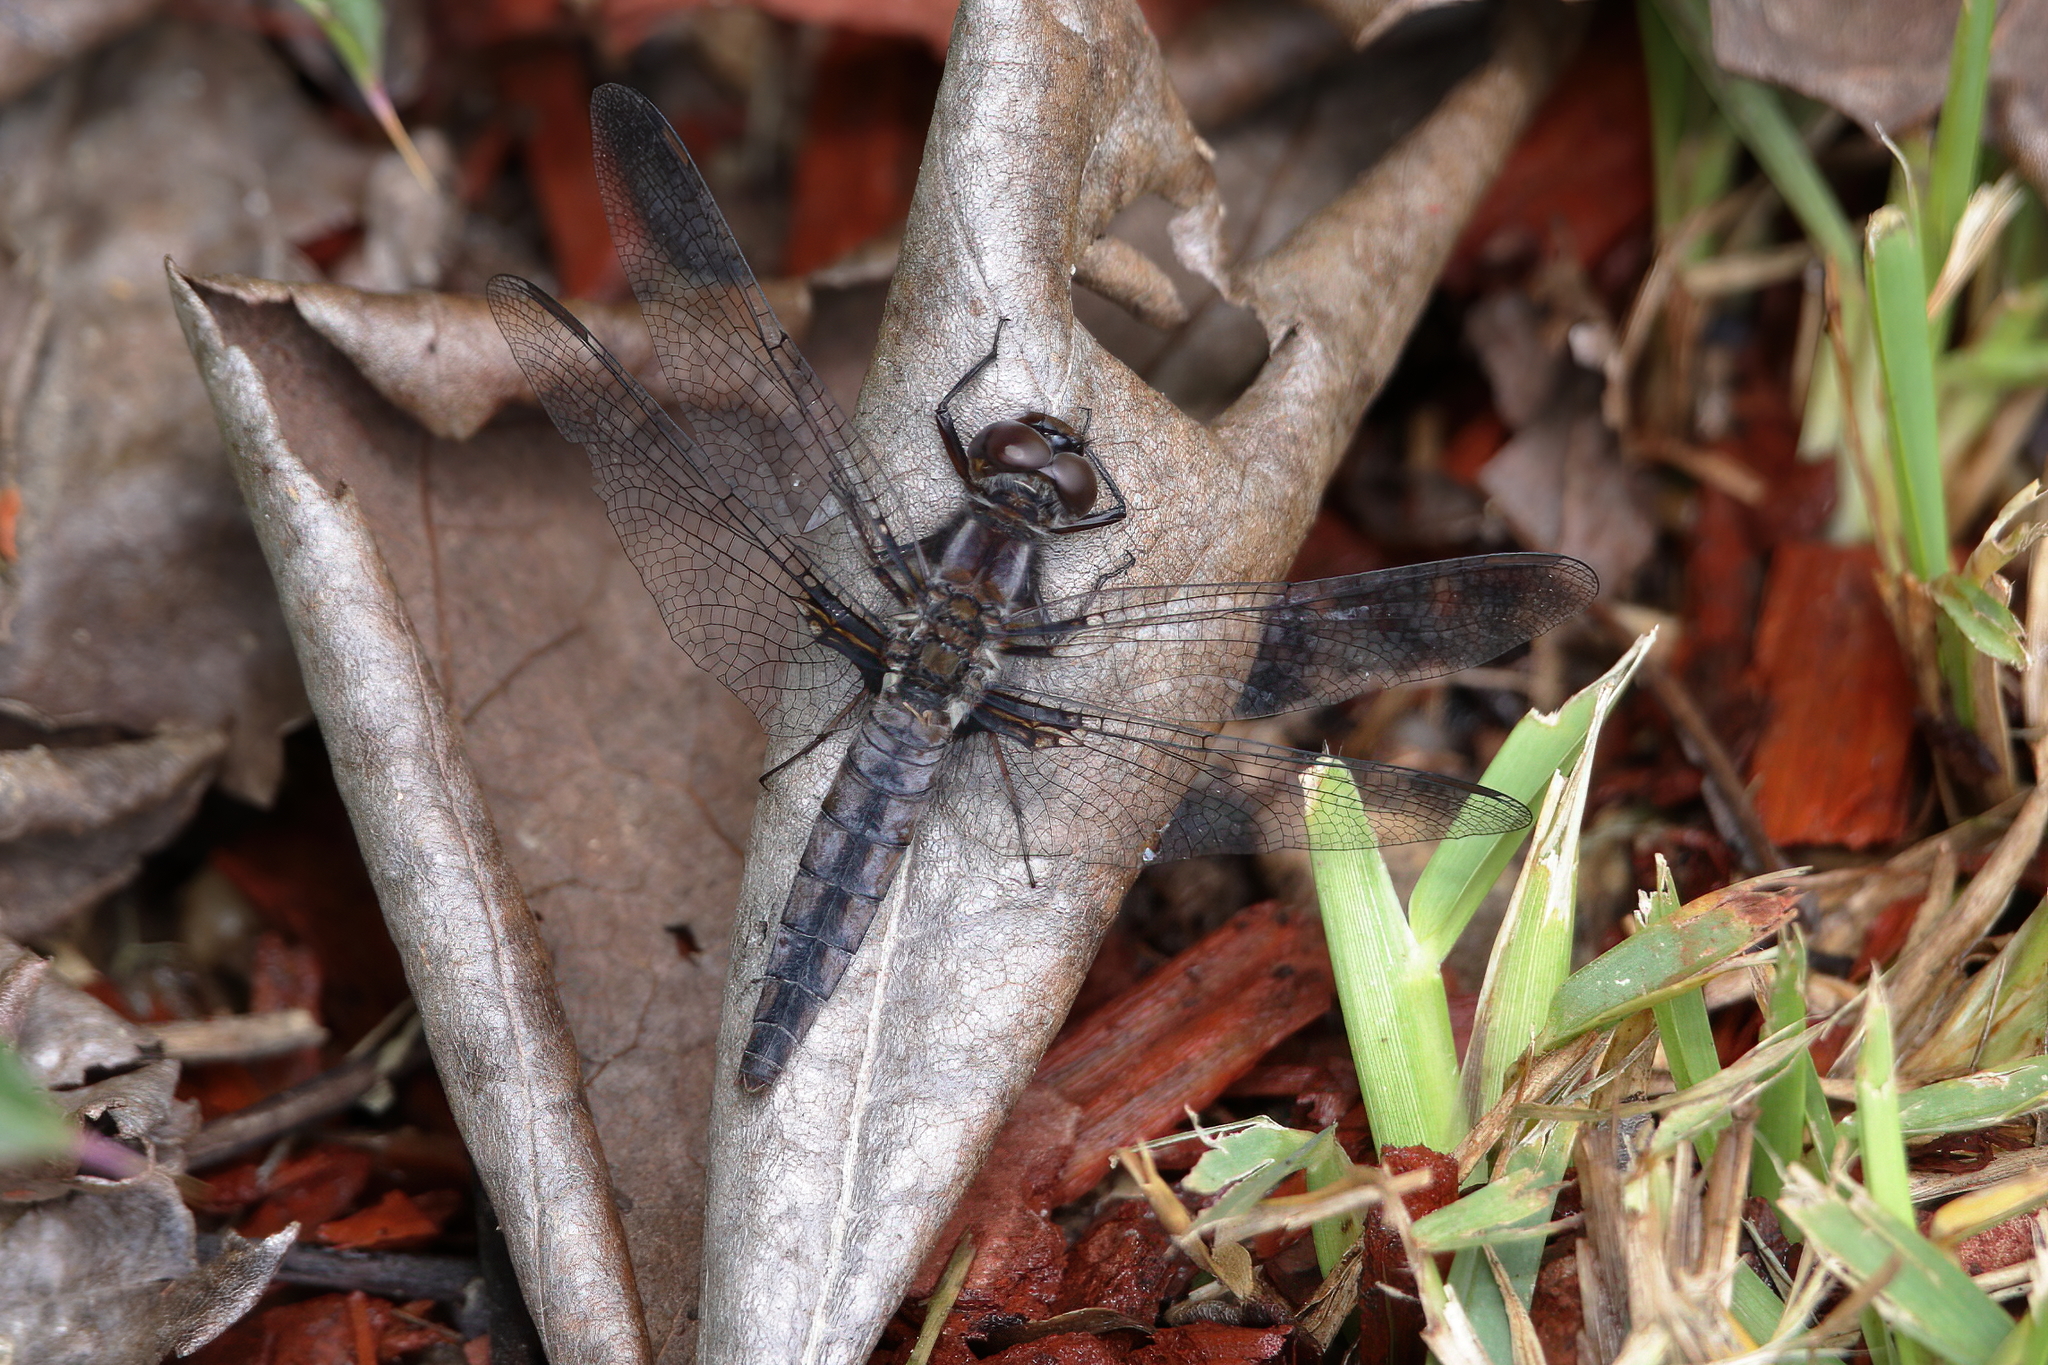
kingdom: Animalia
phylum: Arthropoda
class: Insecta
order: Odonata
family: Libellulidae
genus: Ladona
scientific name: Ladona deplanata
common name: Blue corporal
